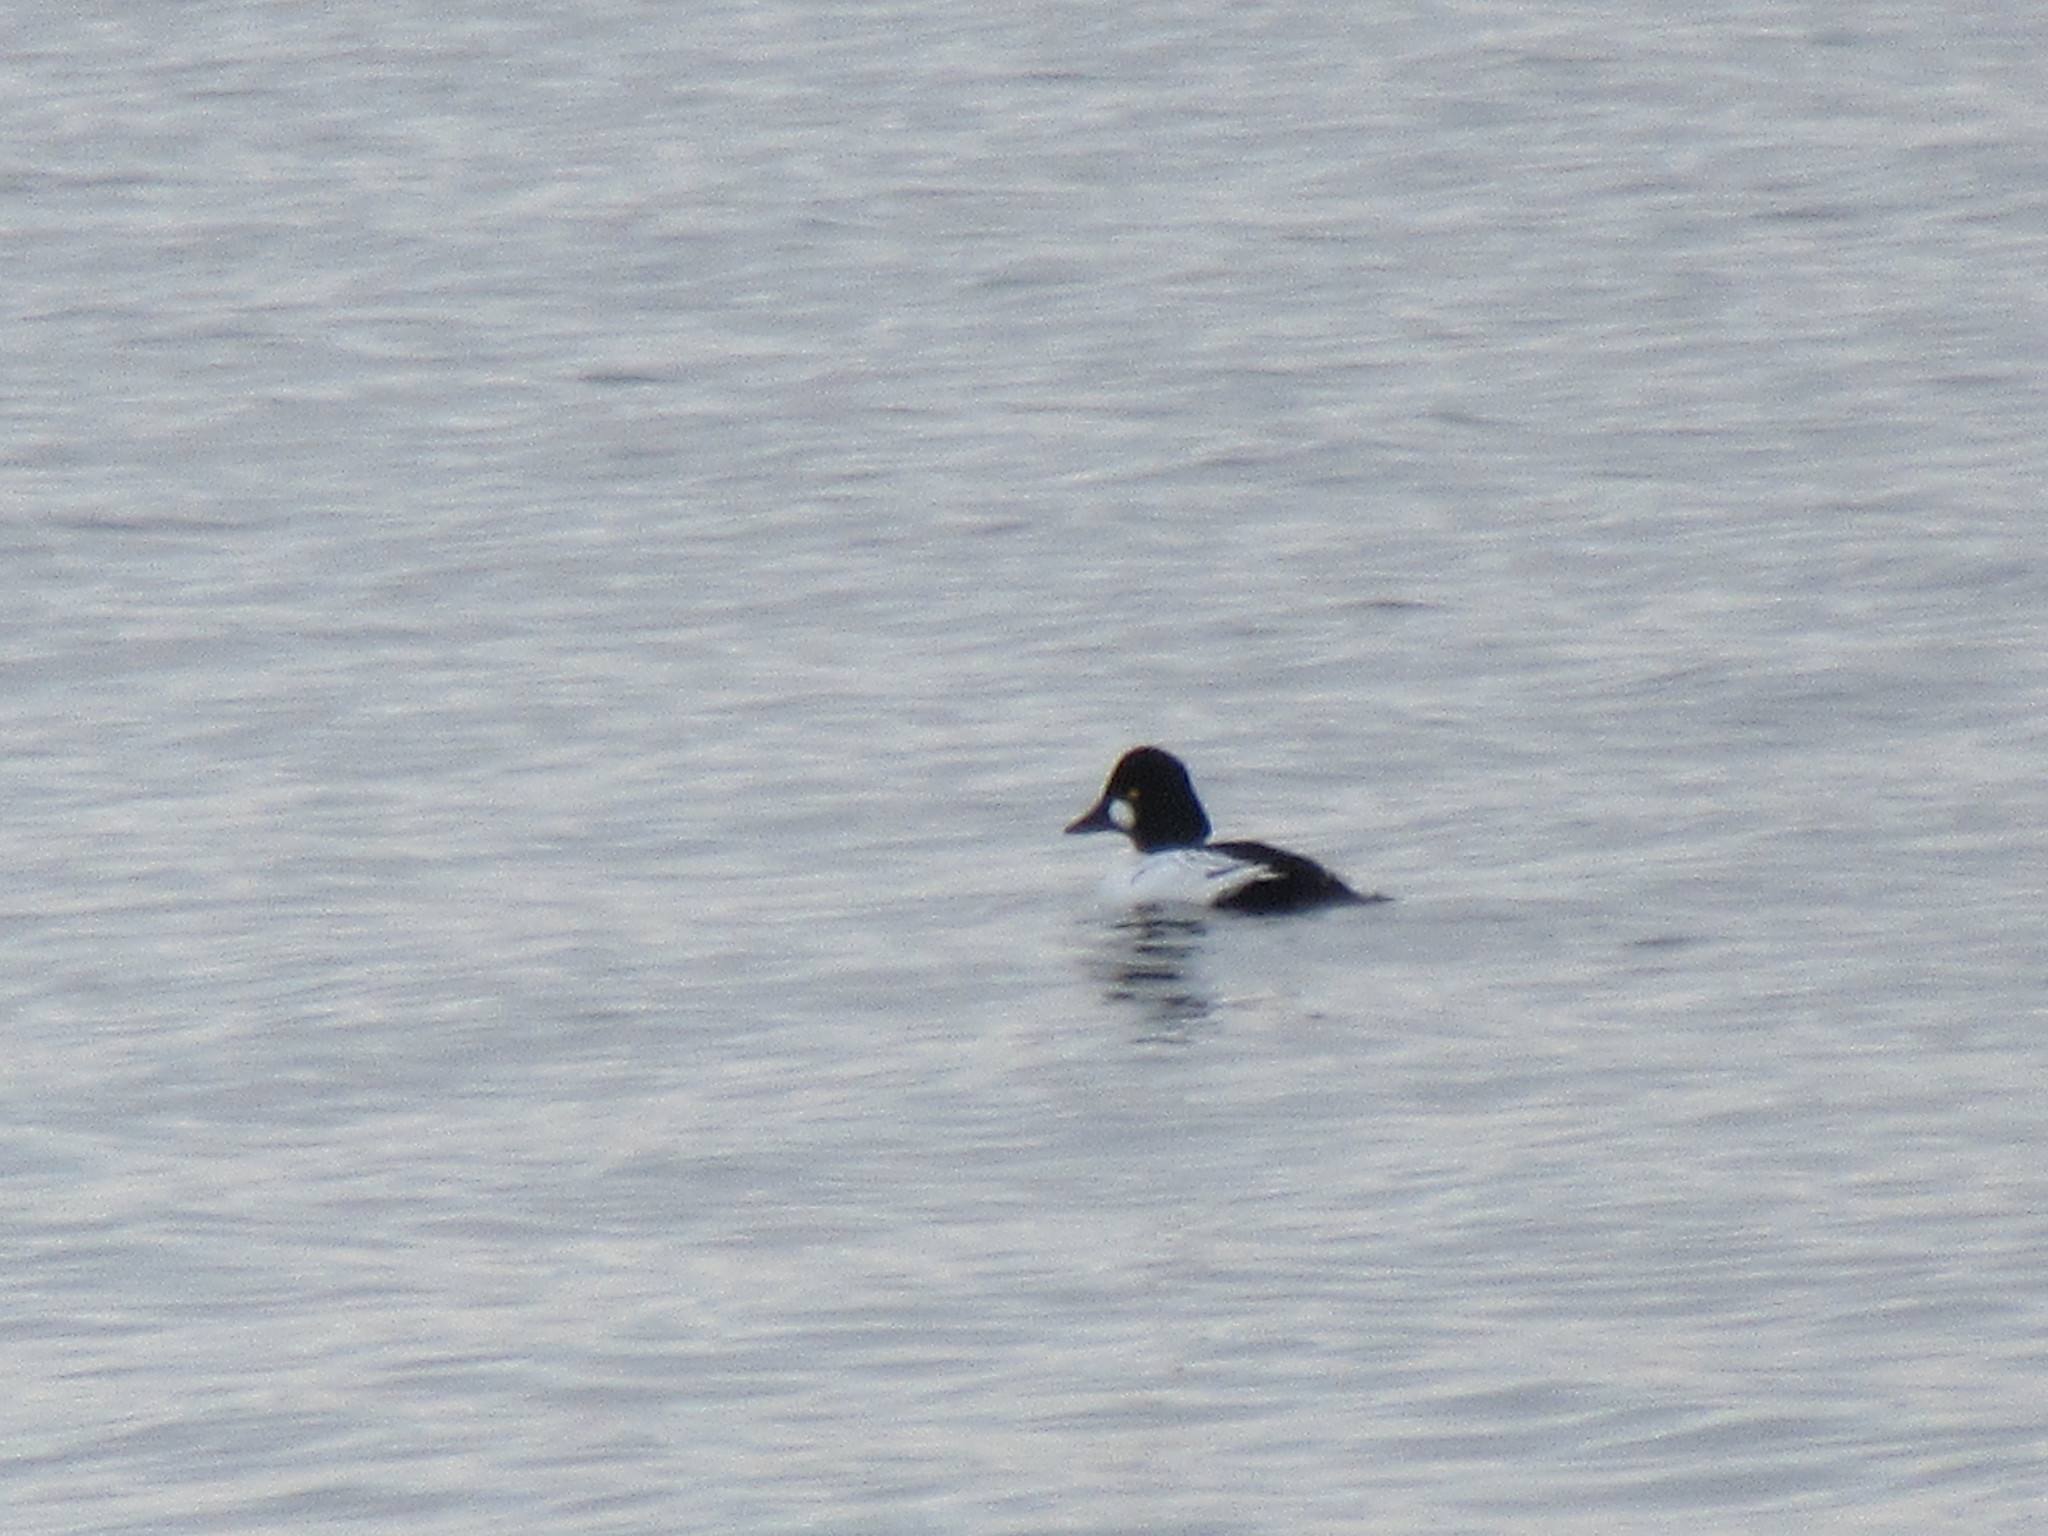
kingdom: Animalia
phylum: Chordata
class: Aves
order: Anseriformes
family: Anatidae
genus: Bucephala
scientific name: Bucephala clangula
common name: Common goldeneye
